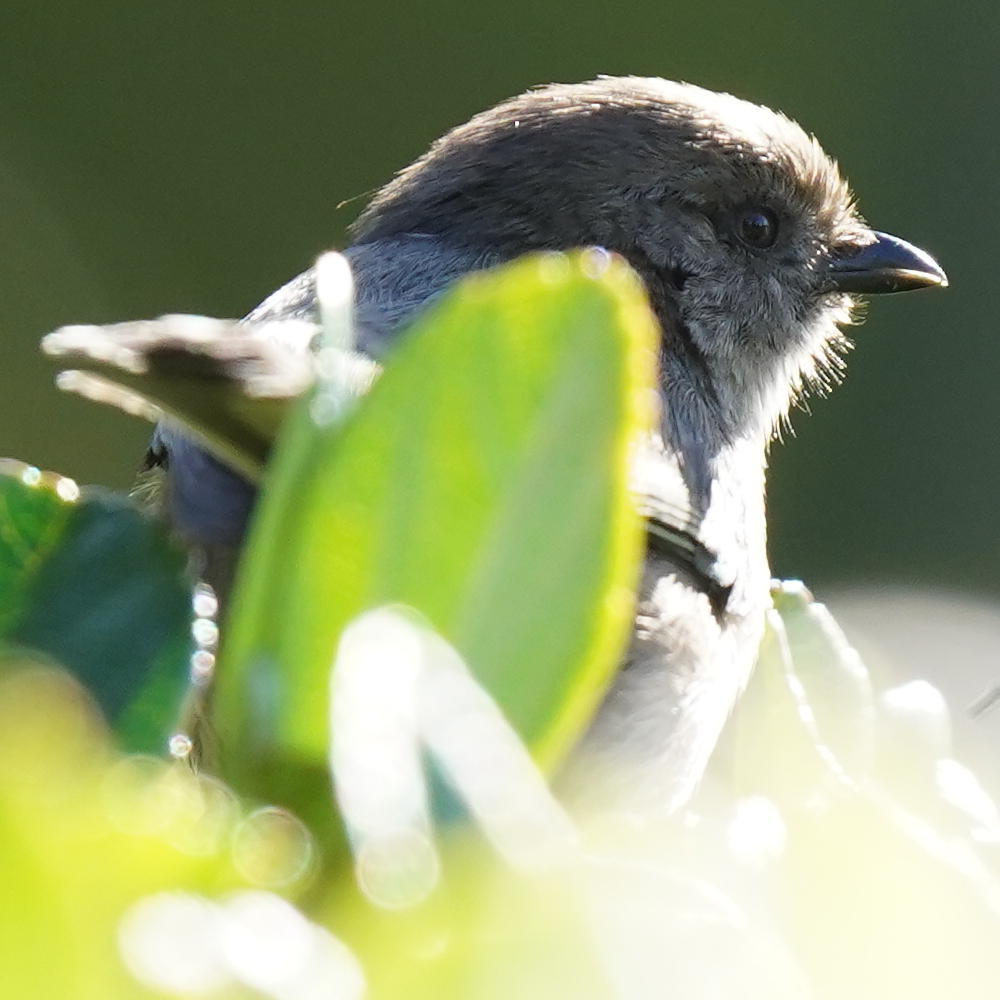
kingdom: Animalia
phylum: Chordata
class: Aves
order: Passeriformes
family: Aegithalidae
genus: Psaltriparus
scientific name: Psaltriparus minimus
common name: American bushtit
